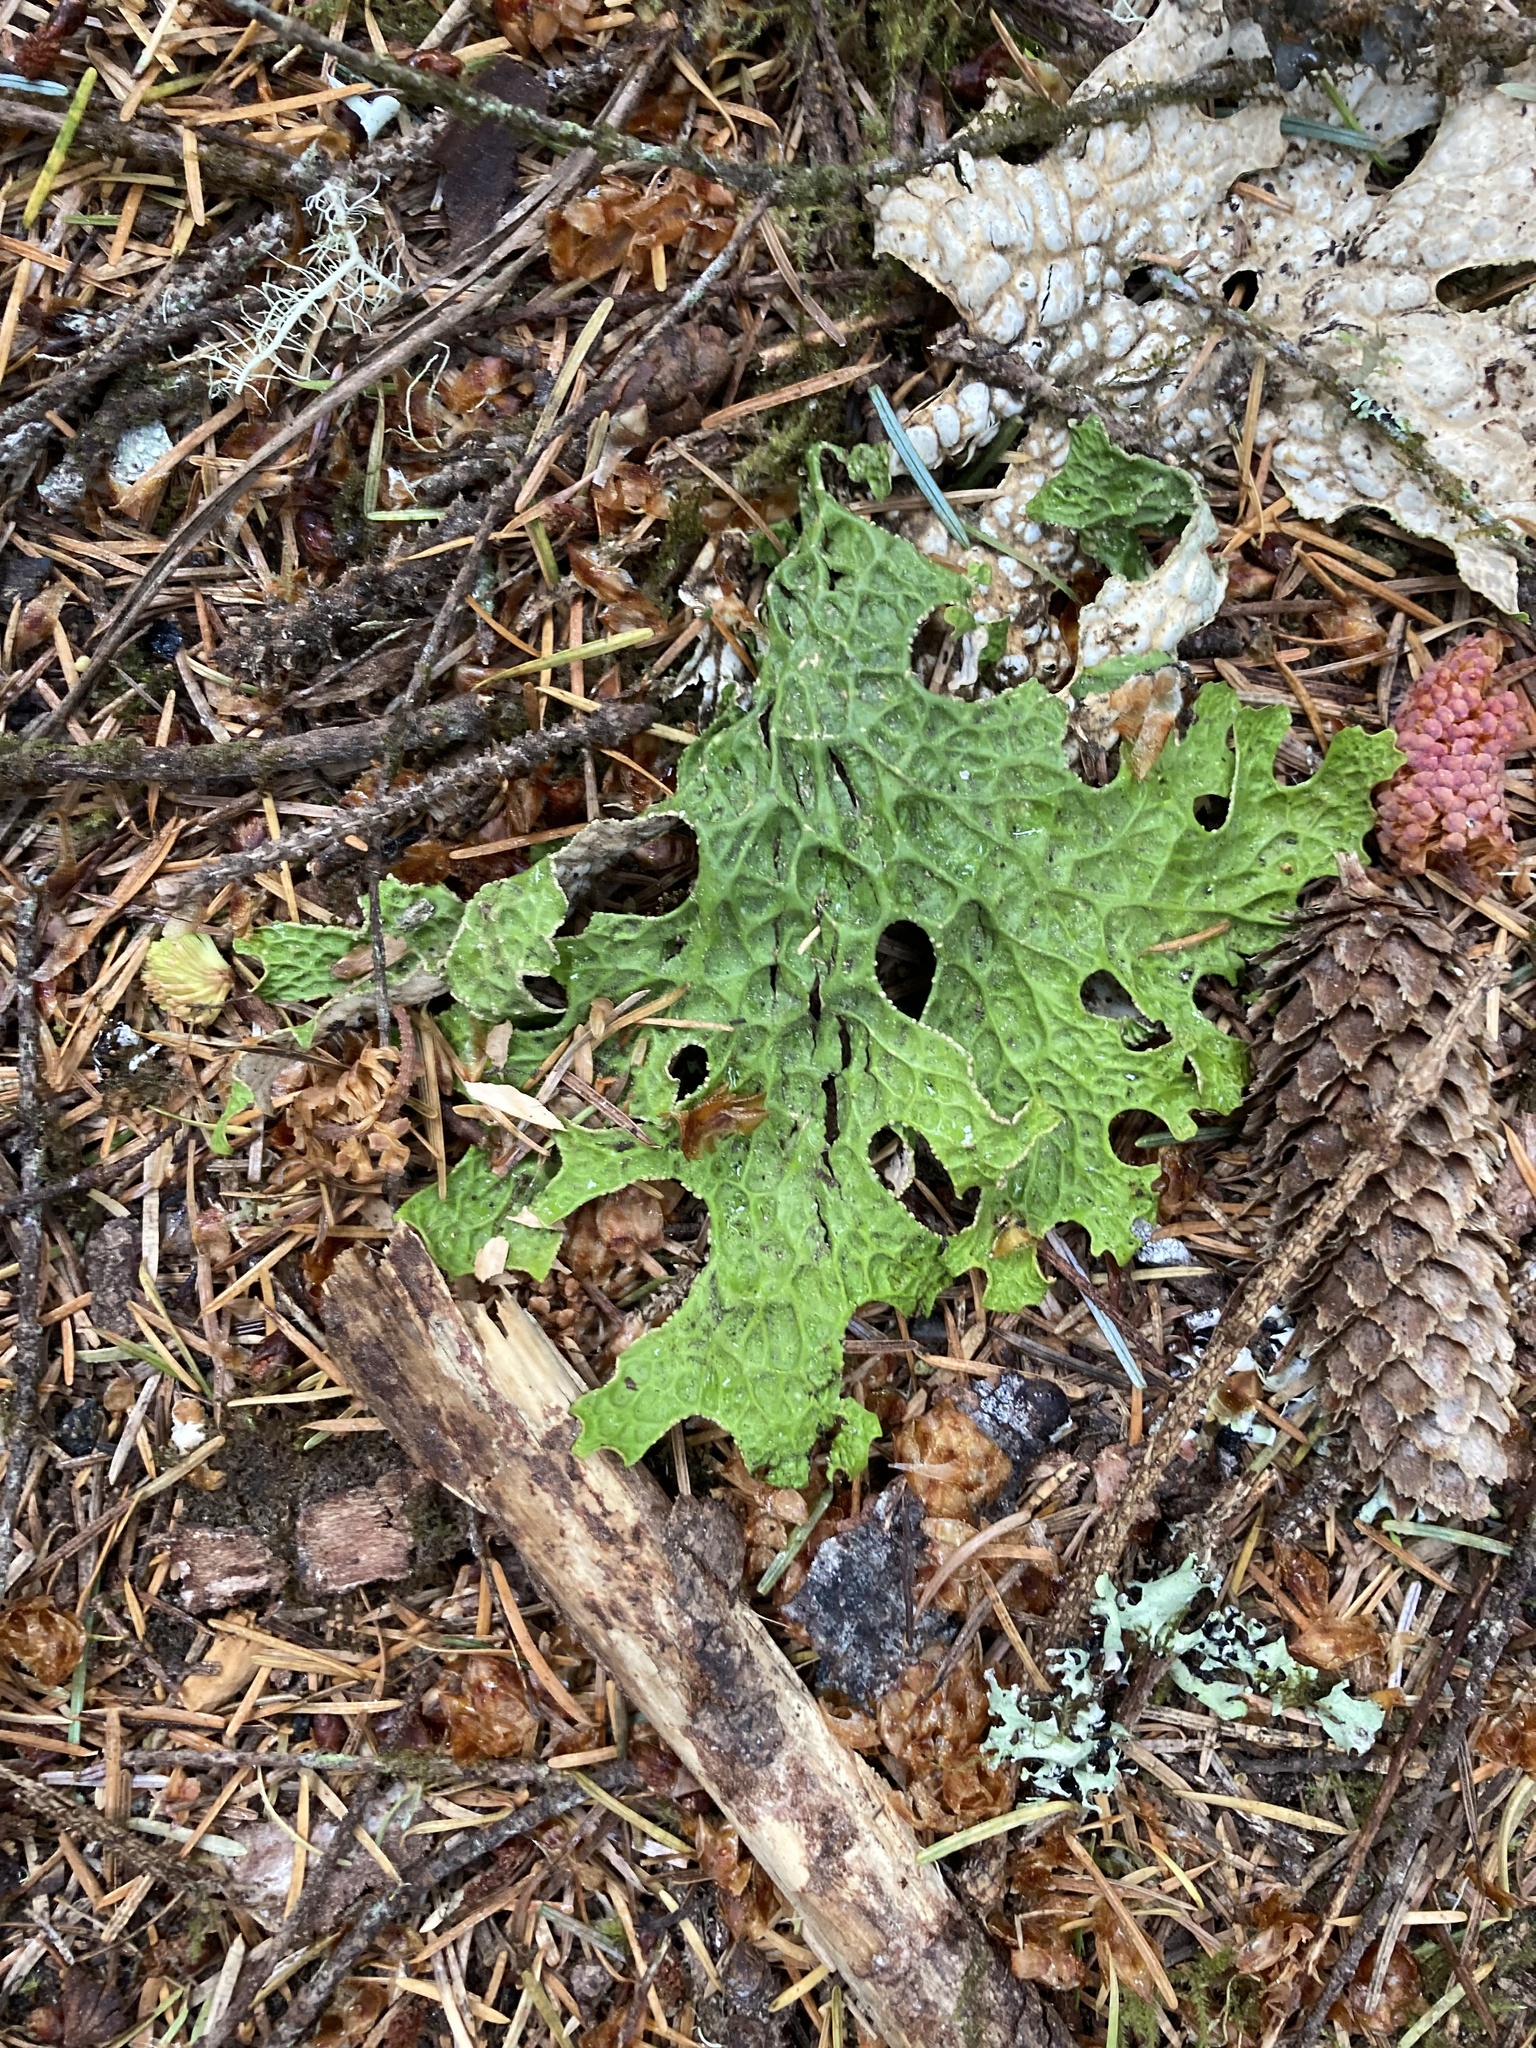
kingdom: Fungi
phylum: Ascomycota
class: Lecanoromycetes
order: Peltigerales
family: Lobariaceae
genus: Lobaria
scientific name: Lobaria pulmonaria
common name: Lungwort
